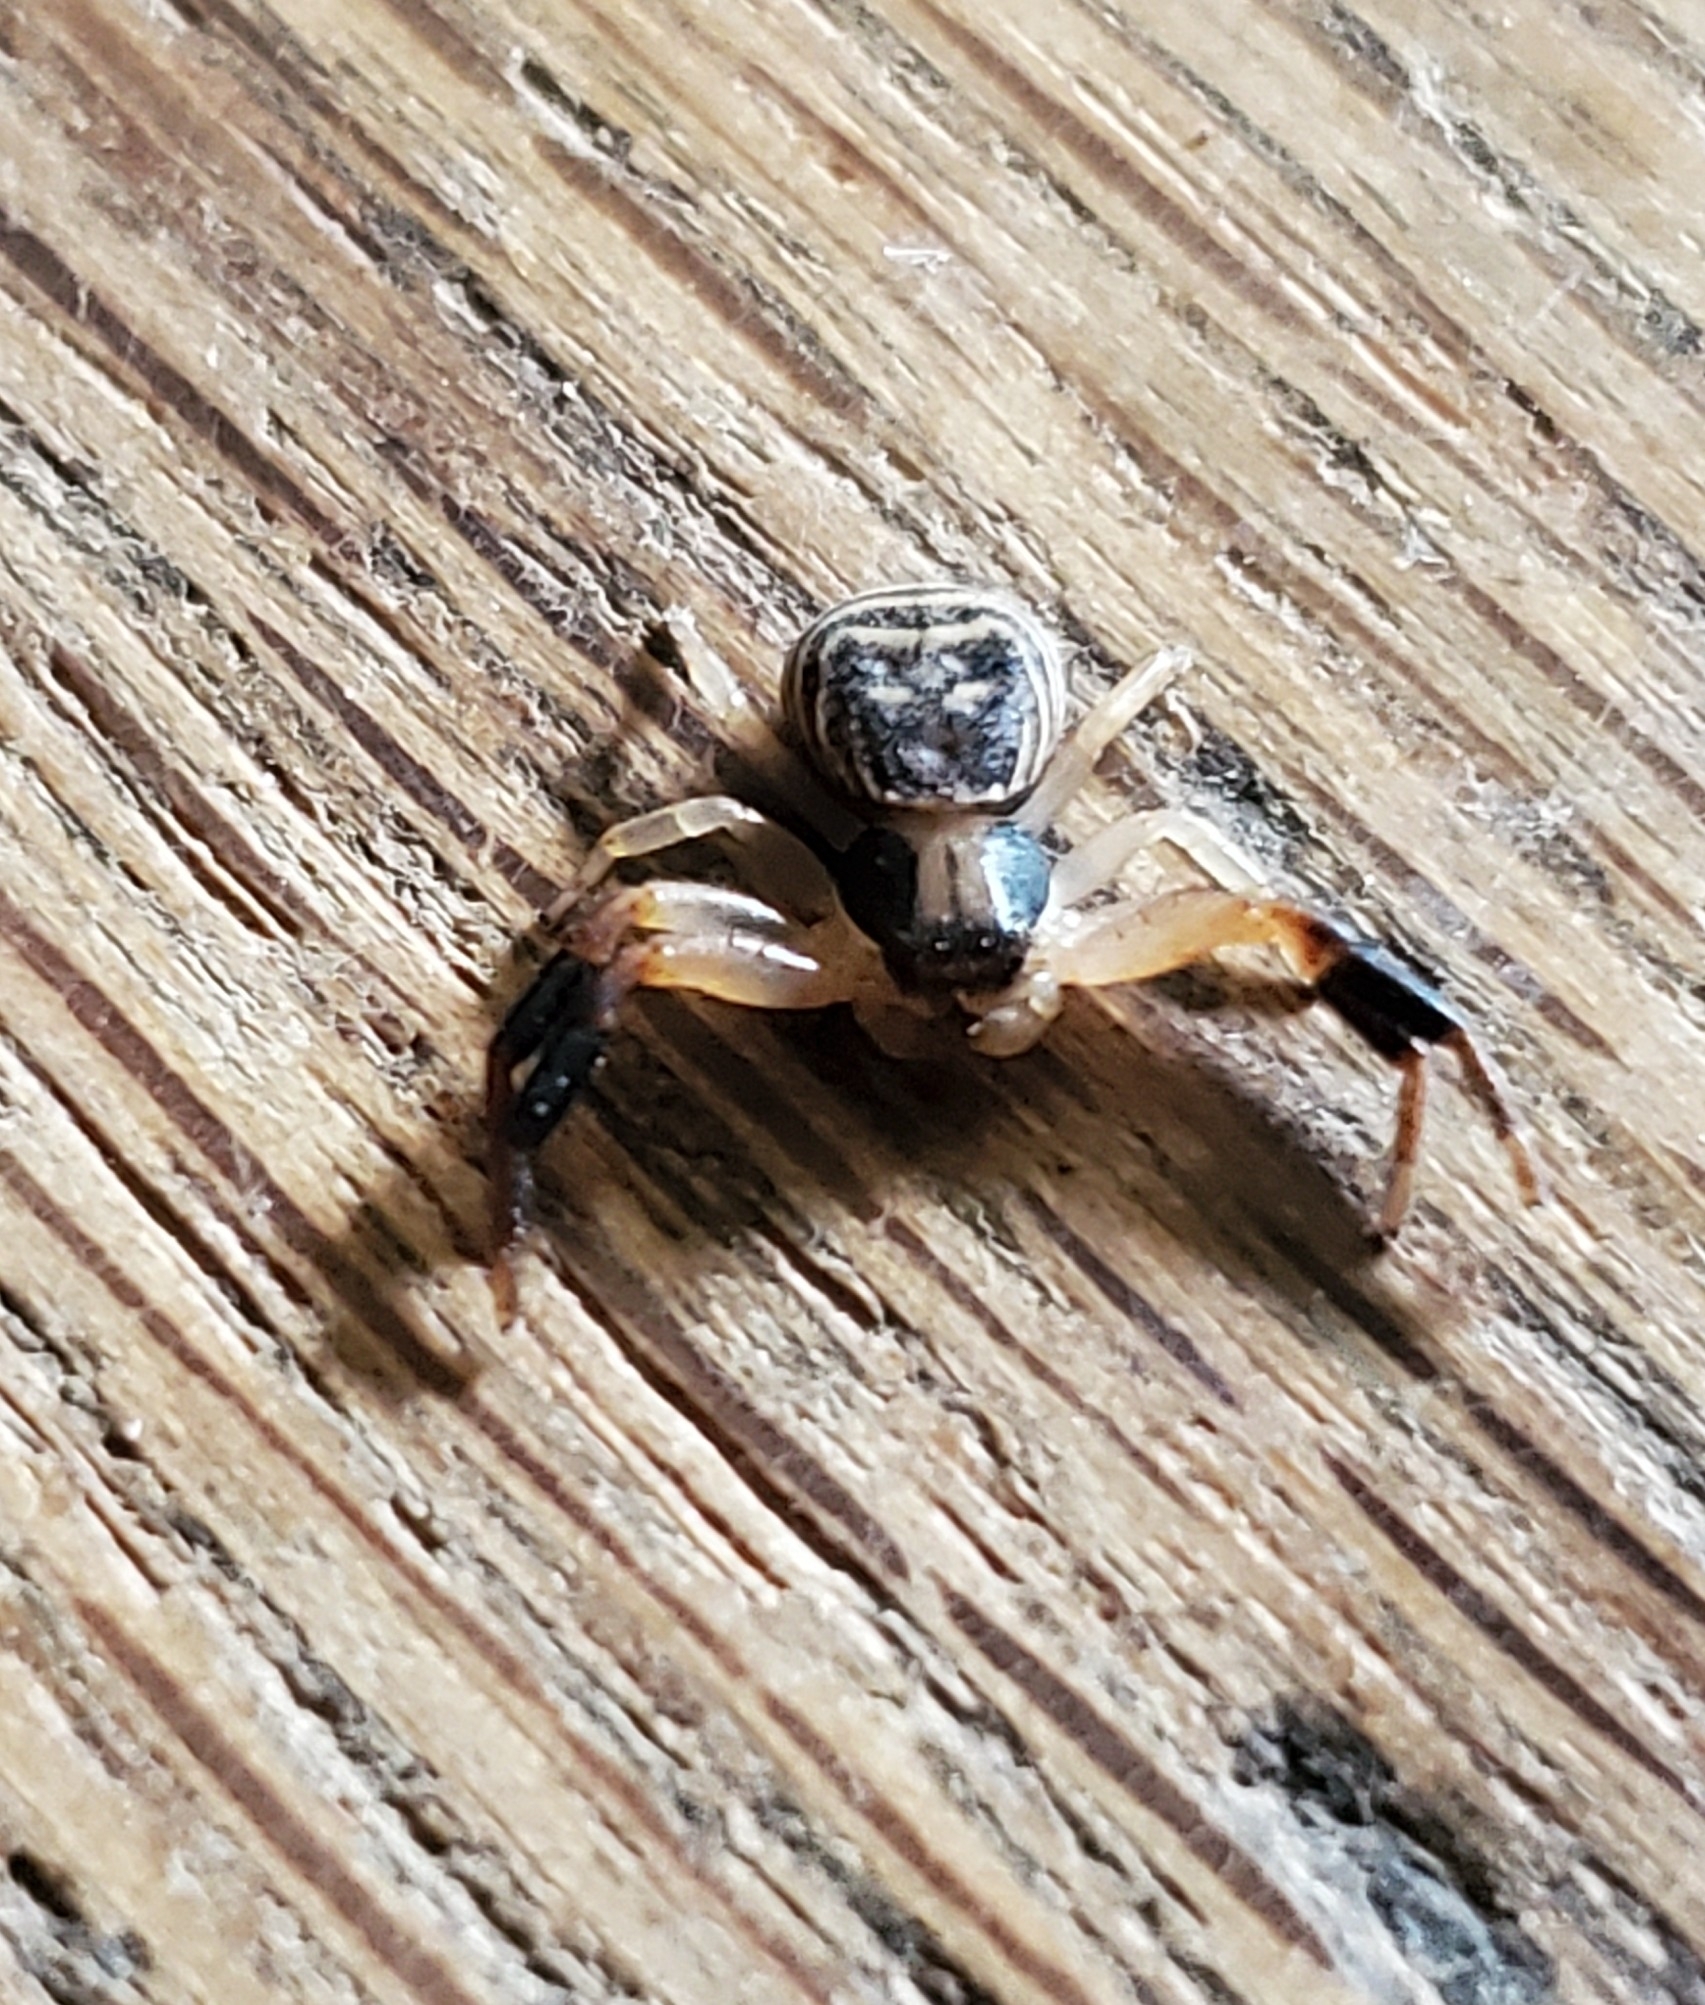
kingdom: Animalia
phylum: Arthropoda
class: Arachnida
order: Araneae
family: Thomisidae
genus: Xysticus
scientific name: Xysticus texanus
